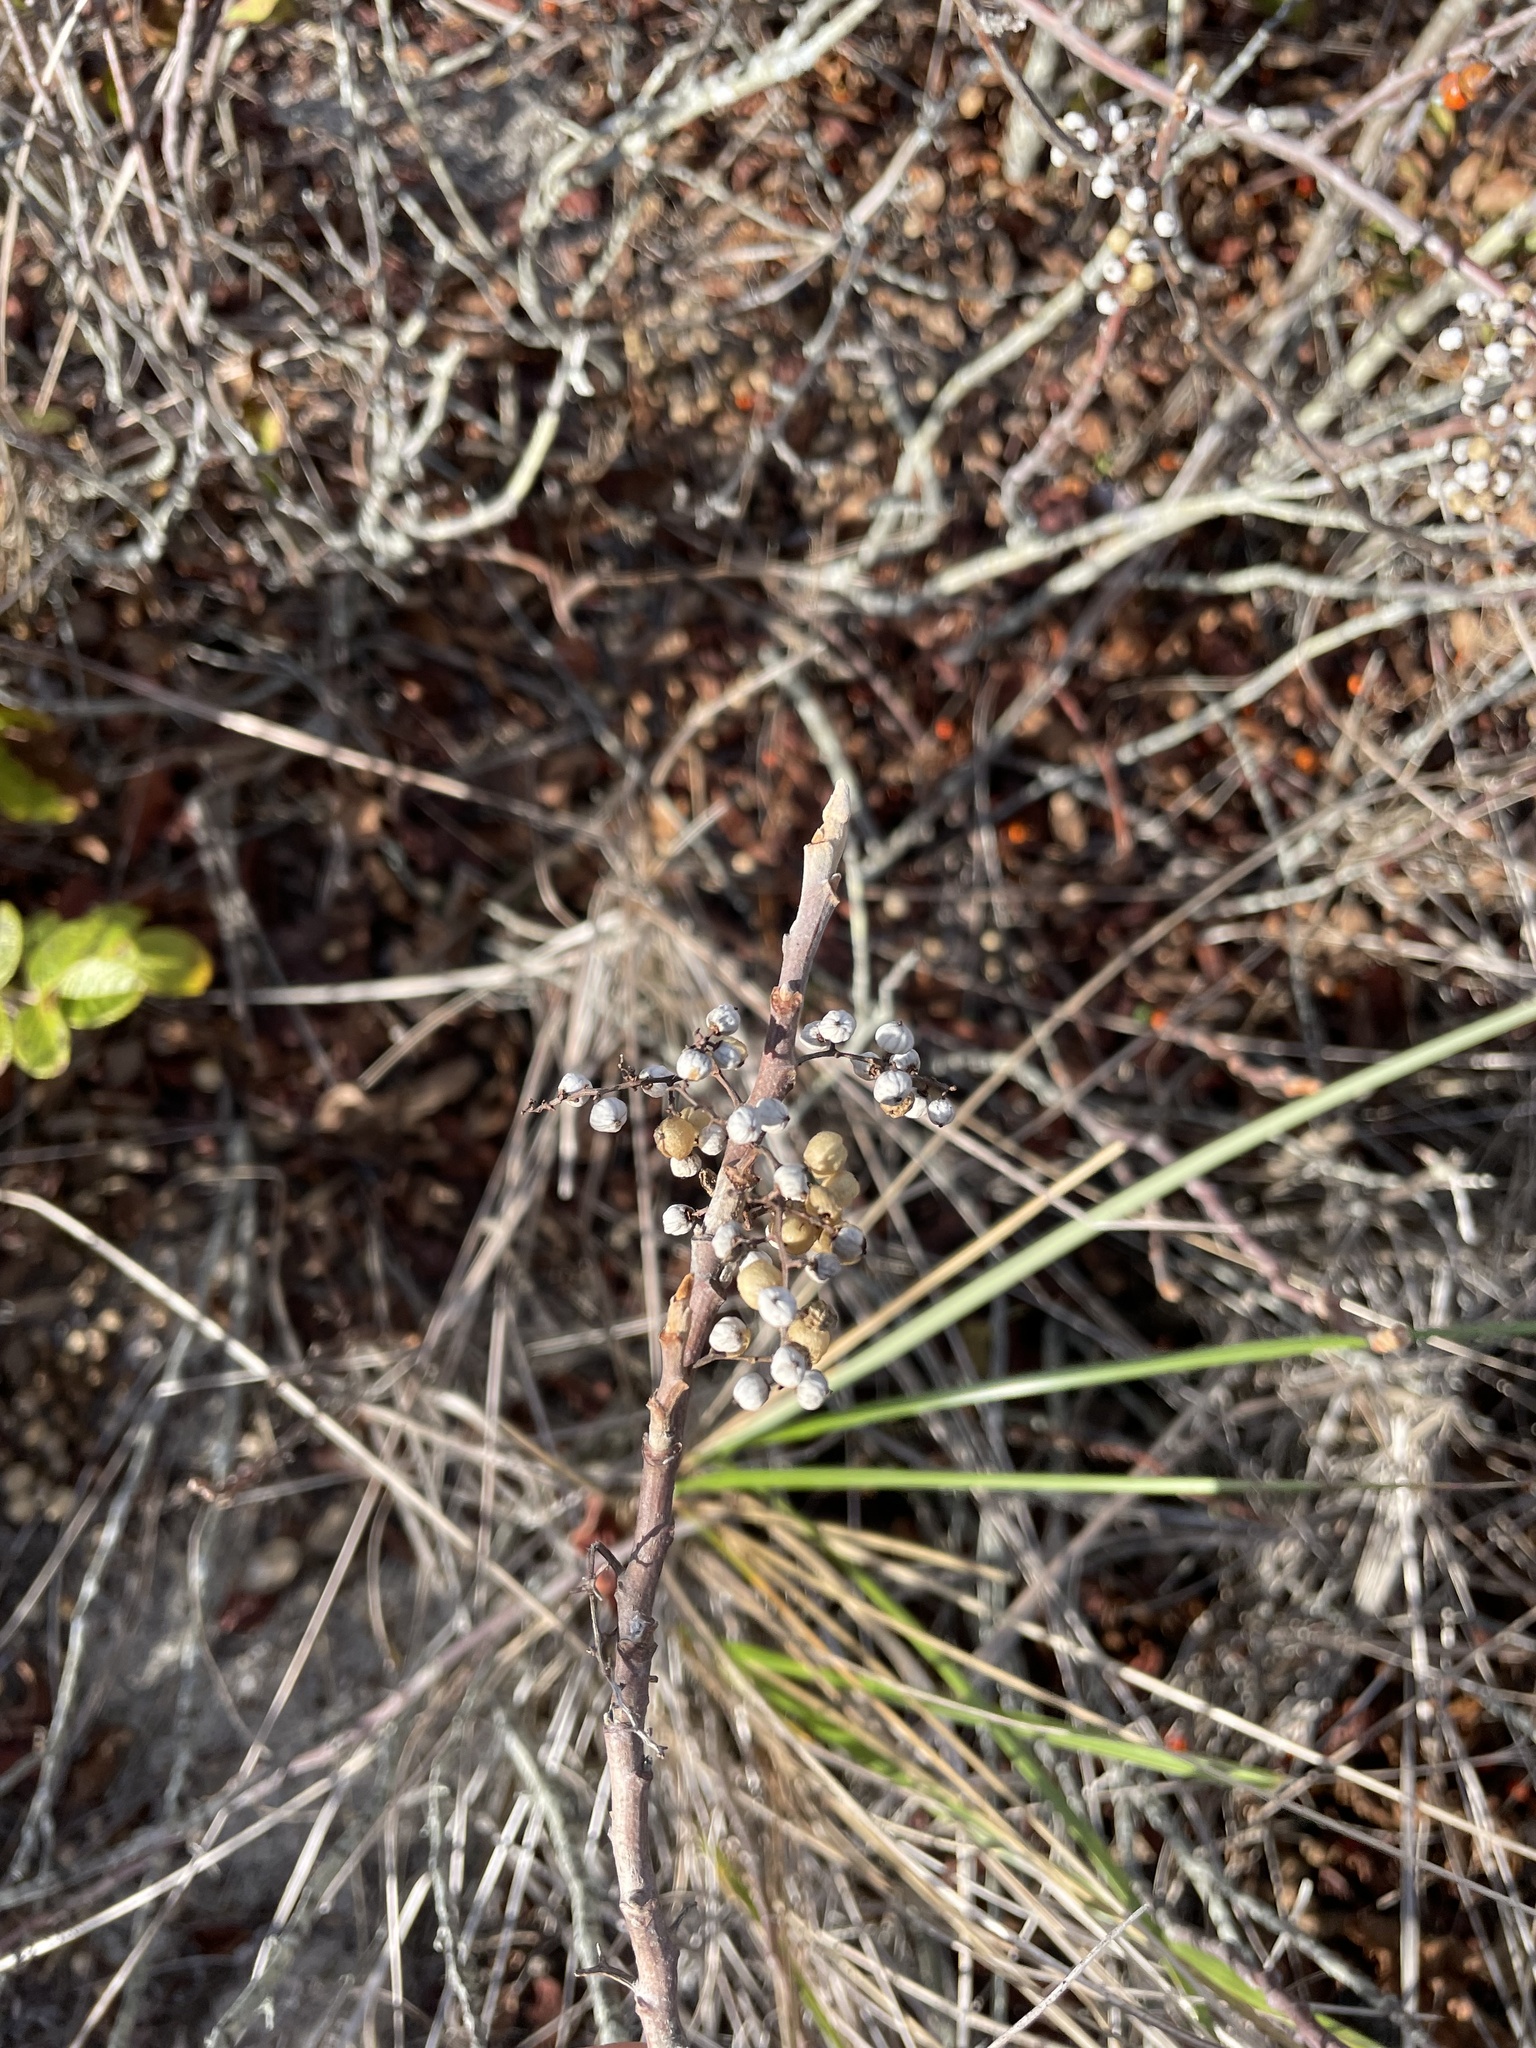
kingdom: Plantae
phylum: Tracheophyta
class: Magnoliopsida
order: Sapindales
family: Anacardiaceae
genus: Toxicodendron
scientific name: Toxicodendron radicans
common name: Poison ivy
